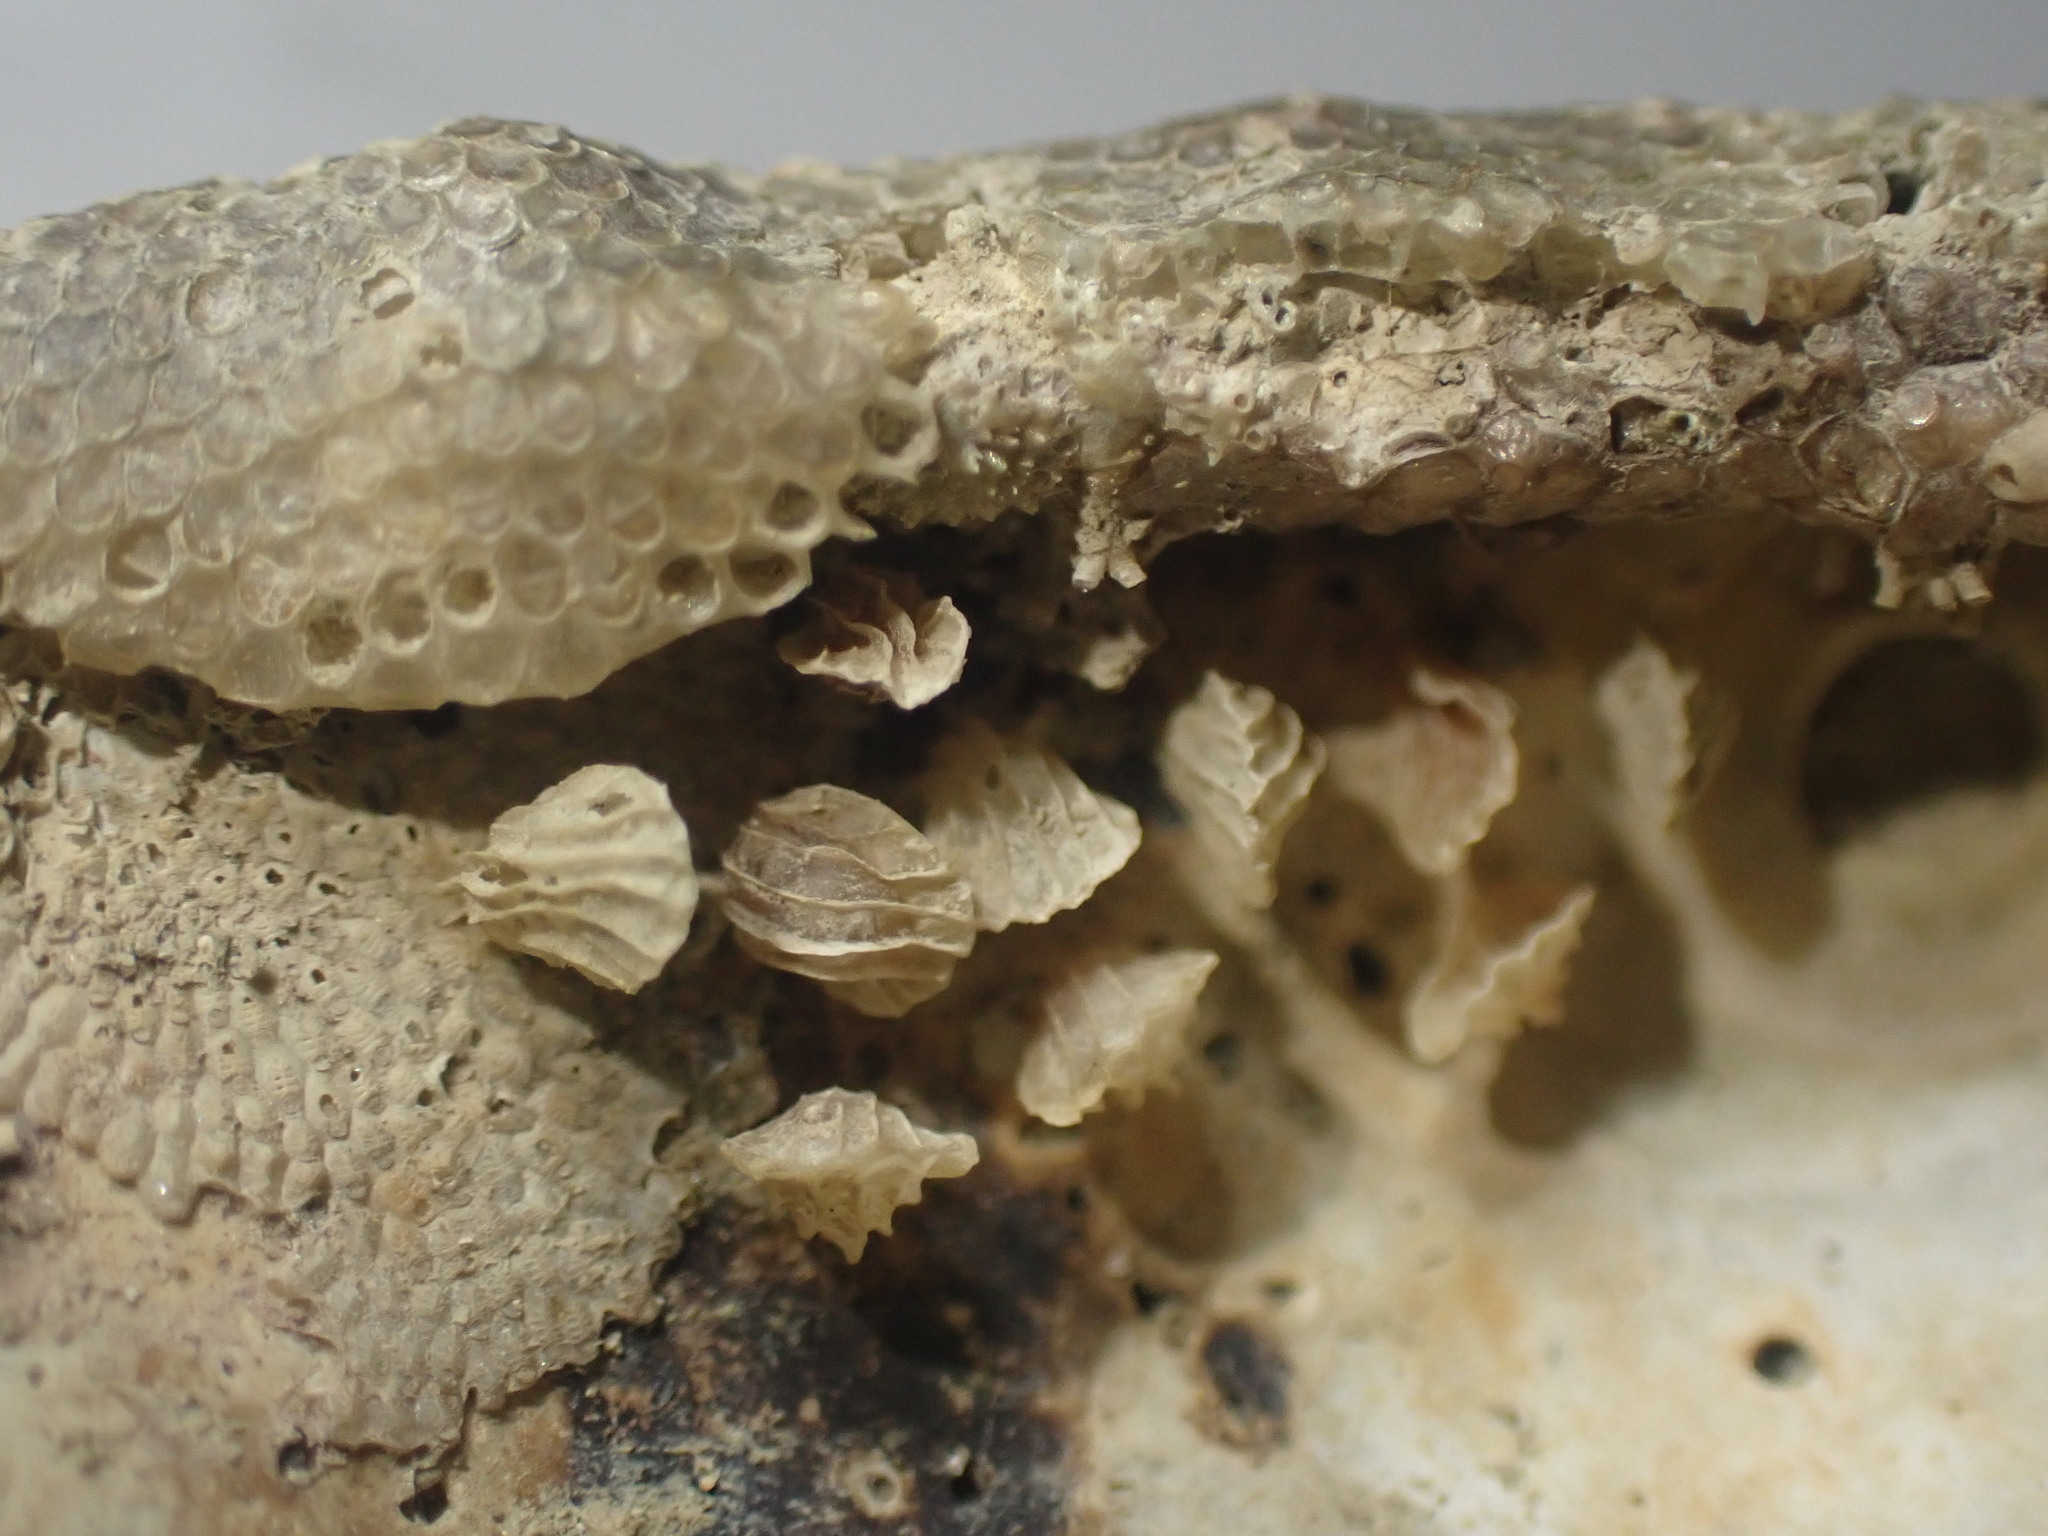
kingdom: Animalia
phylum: Mollusca
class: Gastropoda
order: Neogastropoda
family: Cominellidae
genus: Cominella
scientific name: Cominella quoyana
